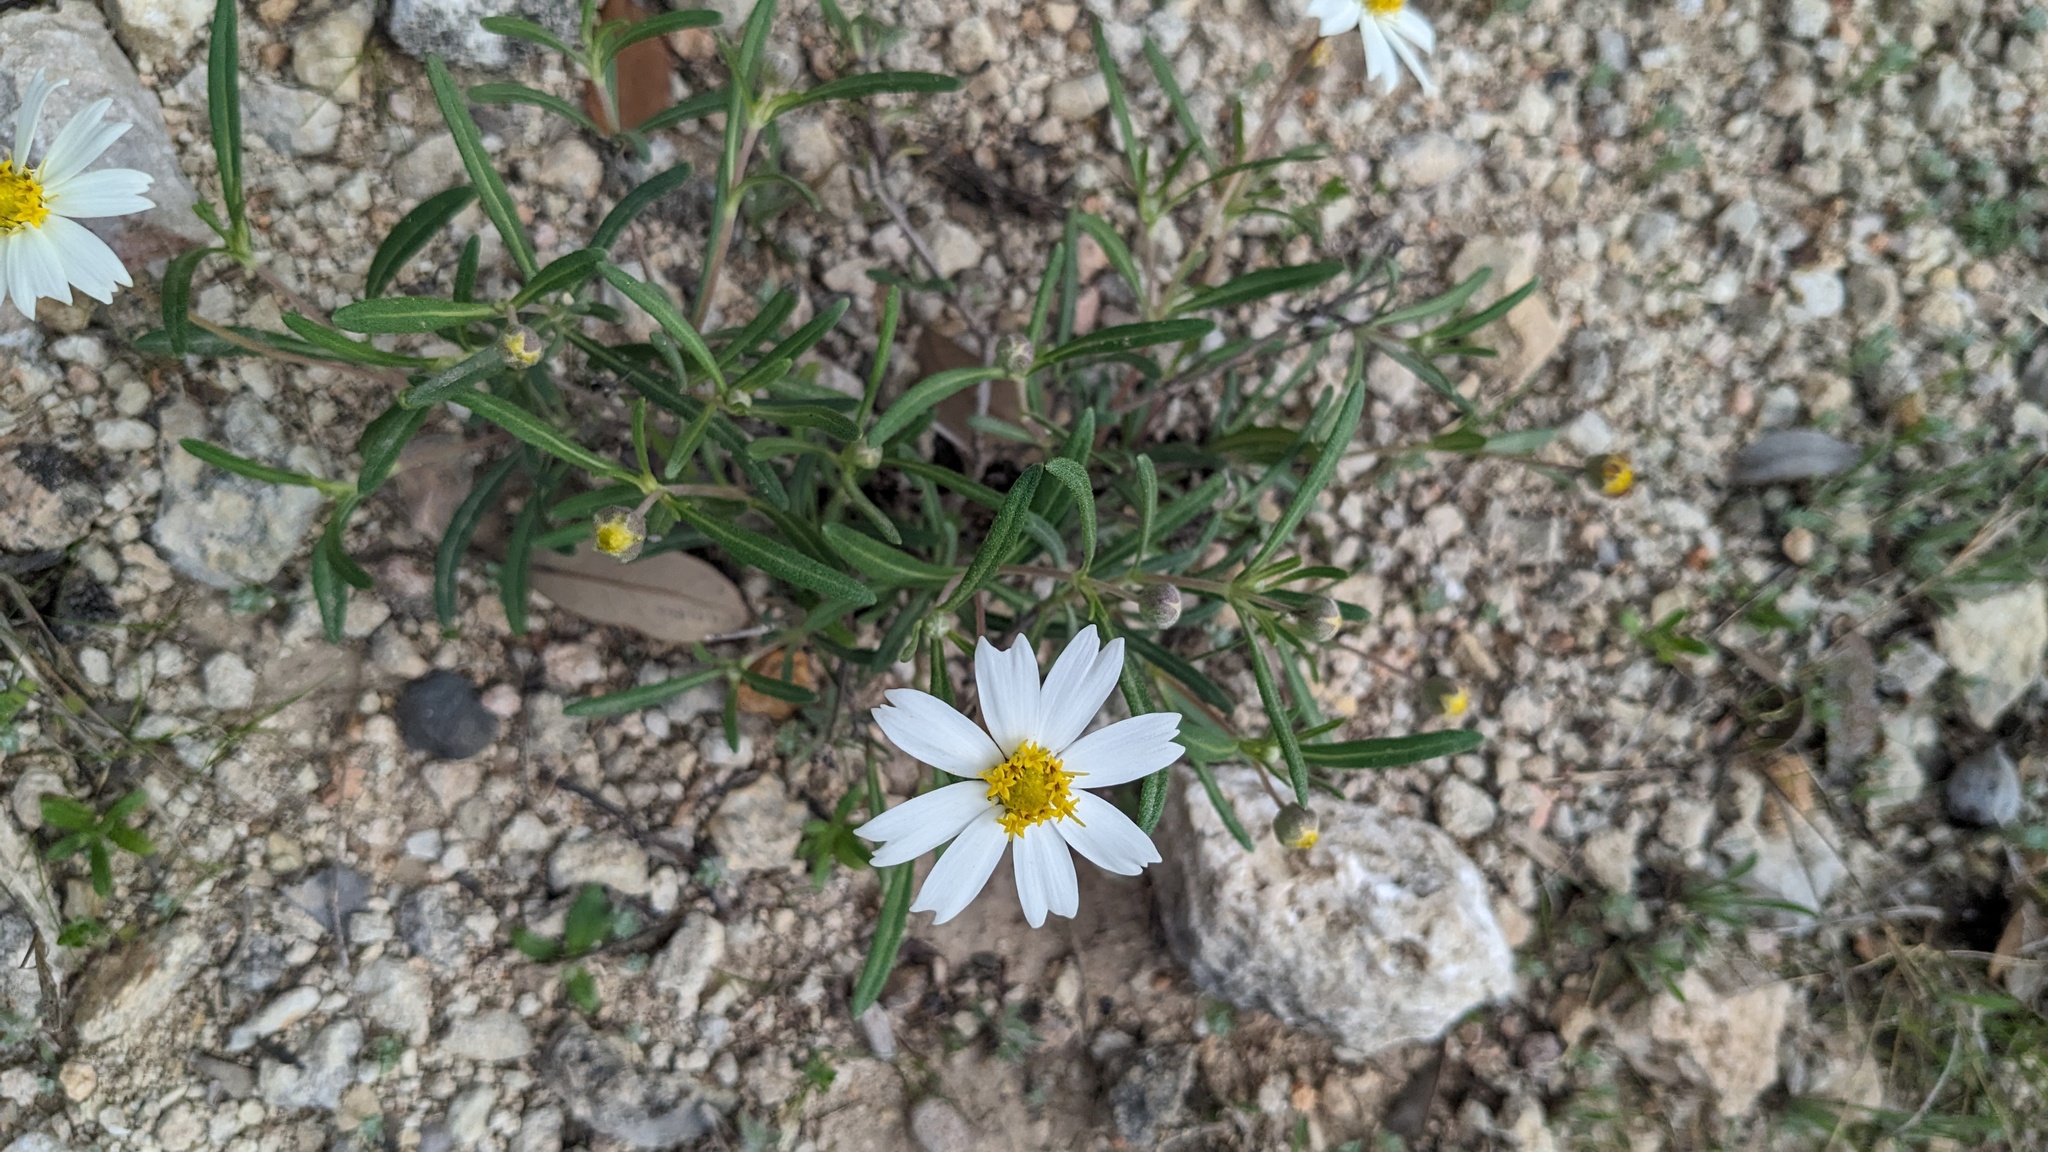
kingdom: Plantae
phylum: Tracheophyta
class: Magnoliopsida
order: Asterales
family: Asteraceae
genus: Melampodium
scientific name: Melampodium leucanthum
